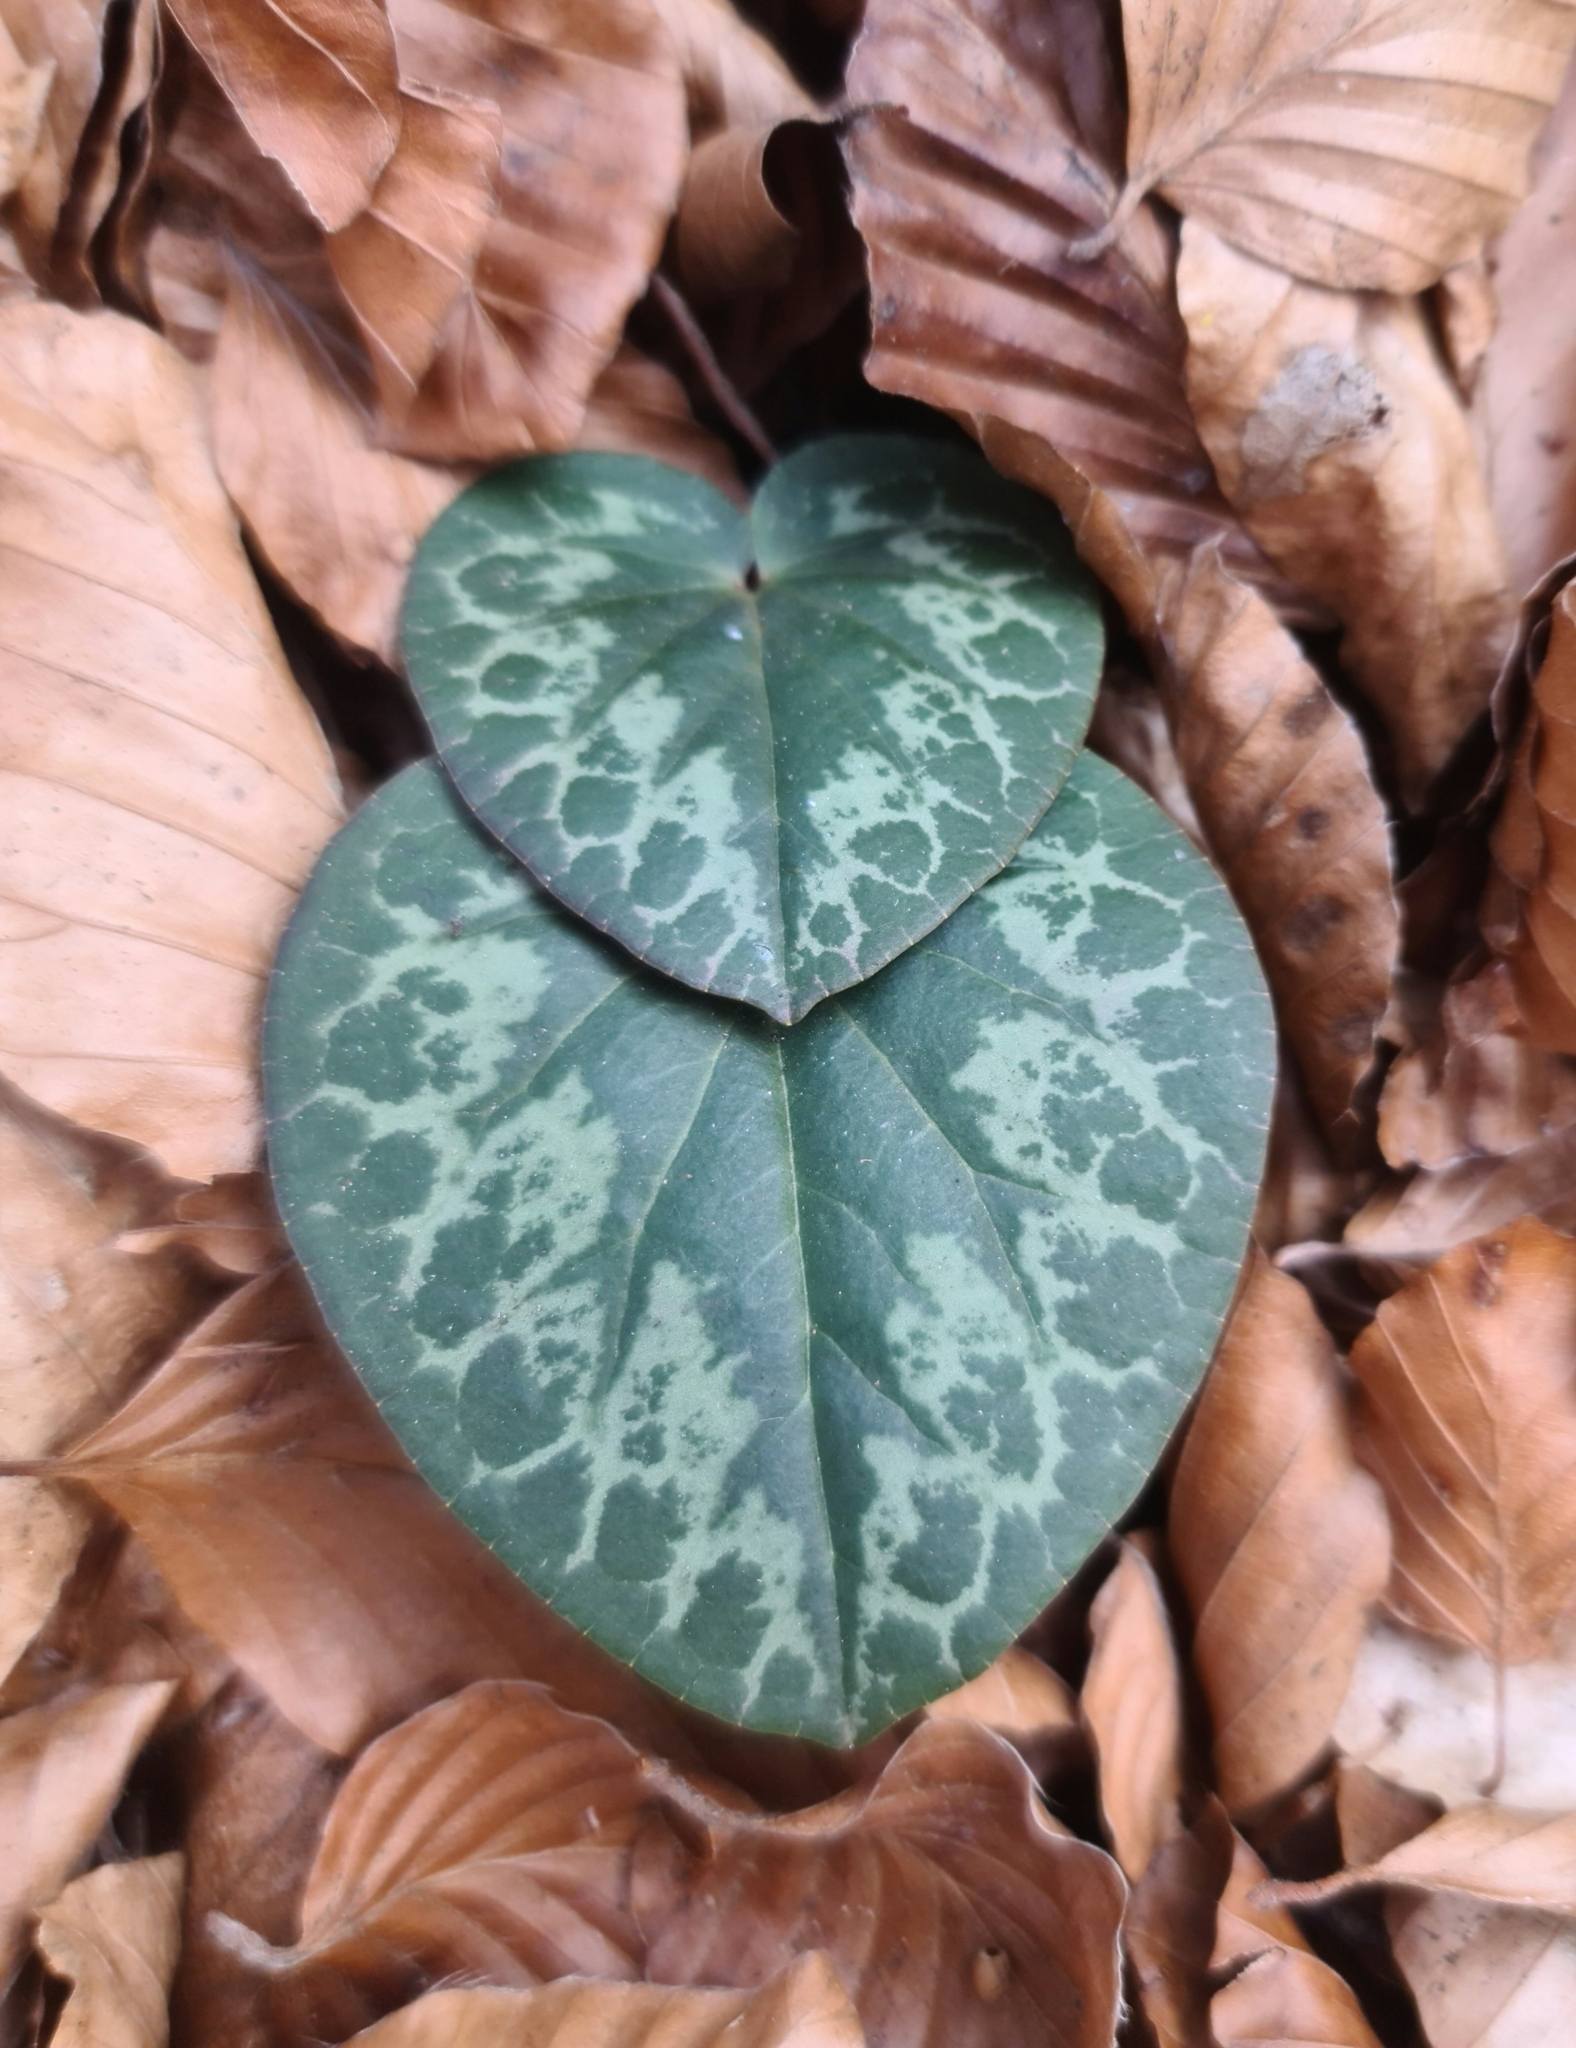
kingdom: Plantae
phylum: Tracheophyta
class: Magnoliopsida
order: Ericales
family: Primulaceae
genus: Cyclamen
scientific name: Cyclamen purpurascens
